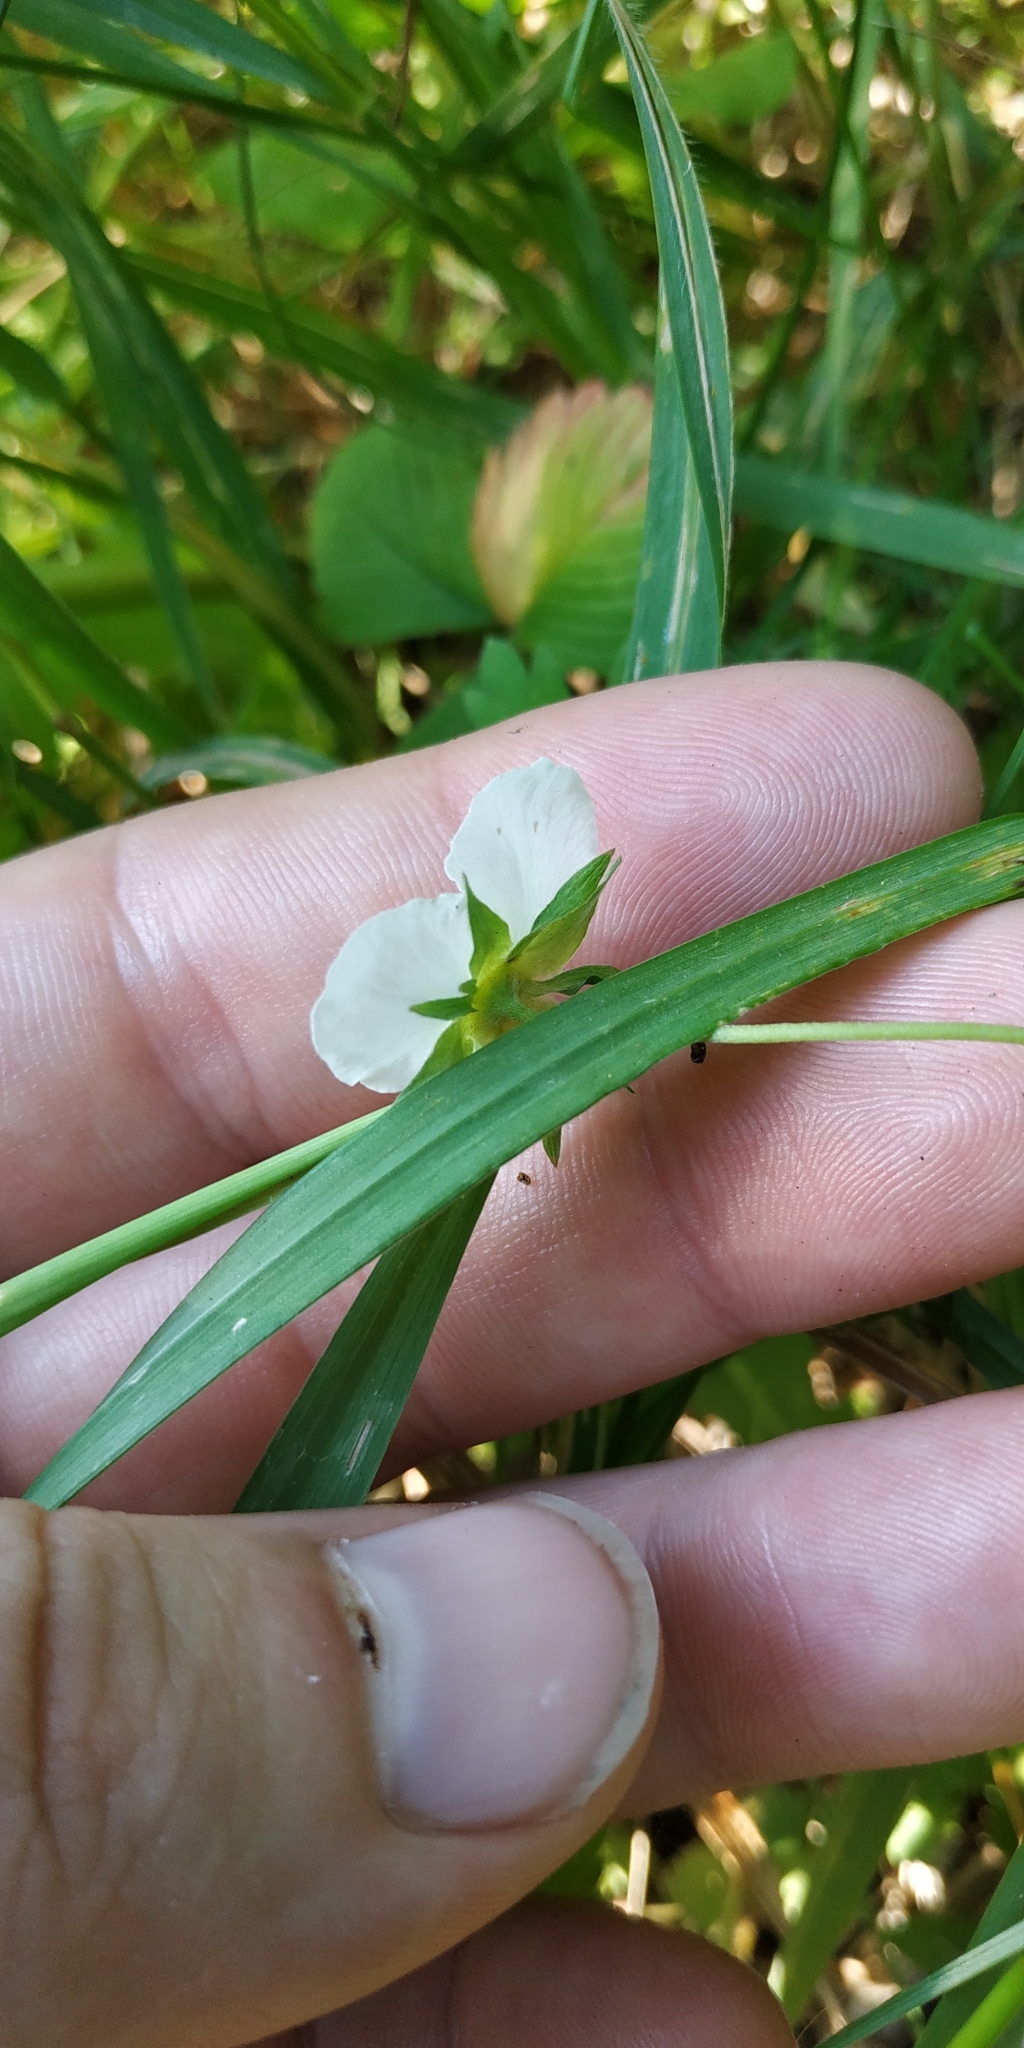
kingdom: Plantae
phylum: Tracheophyta
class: Magnoliopsida
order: Rosales
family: Rosaceae
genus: Fragaria
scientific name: Fragaria viridis
